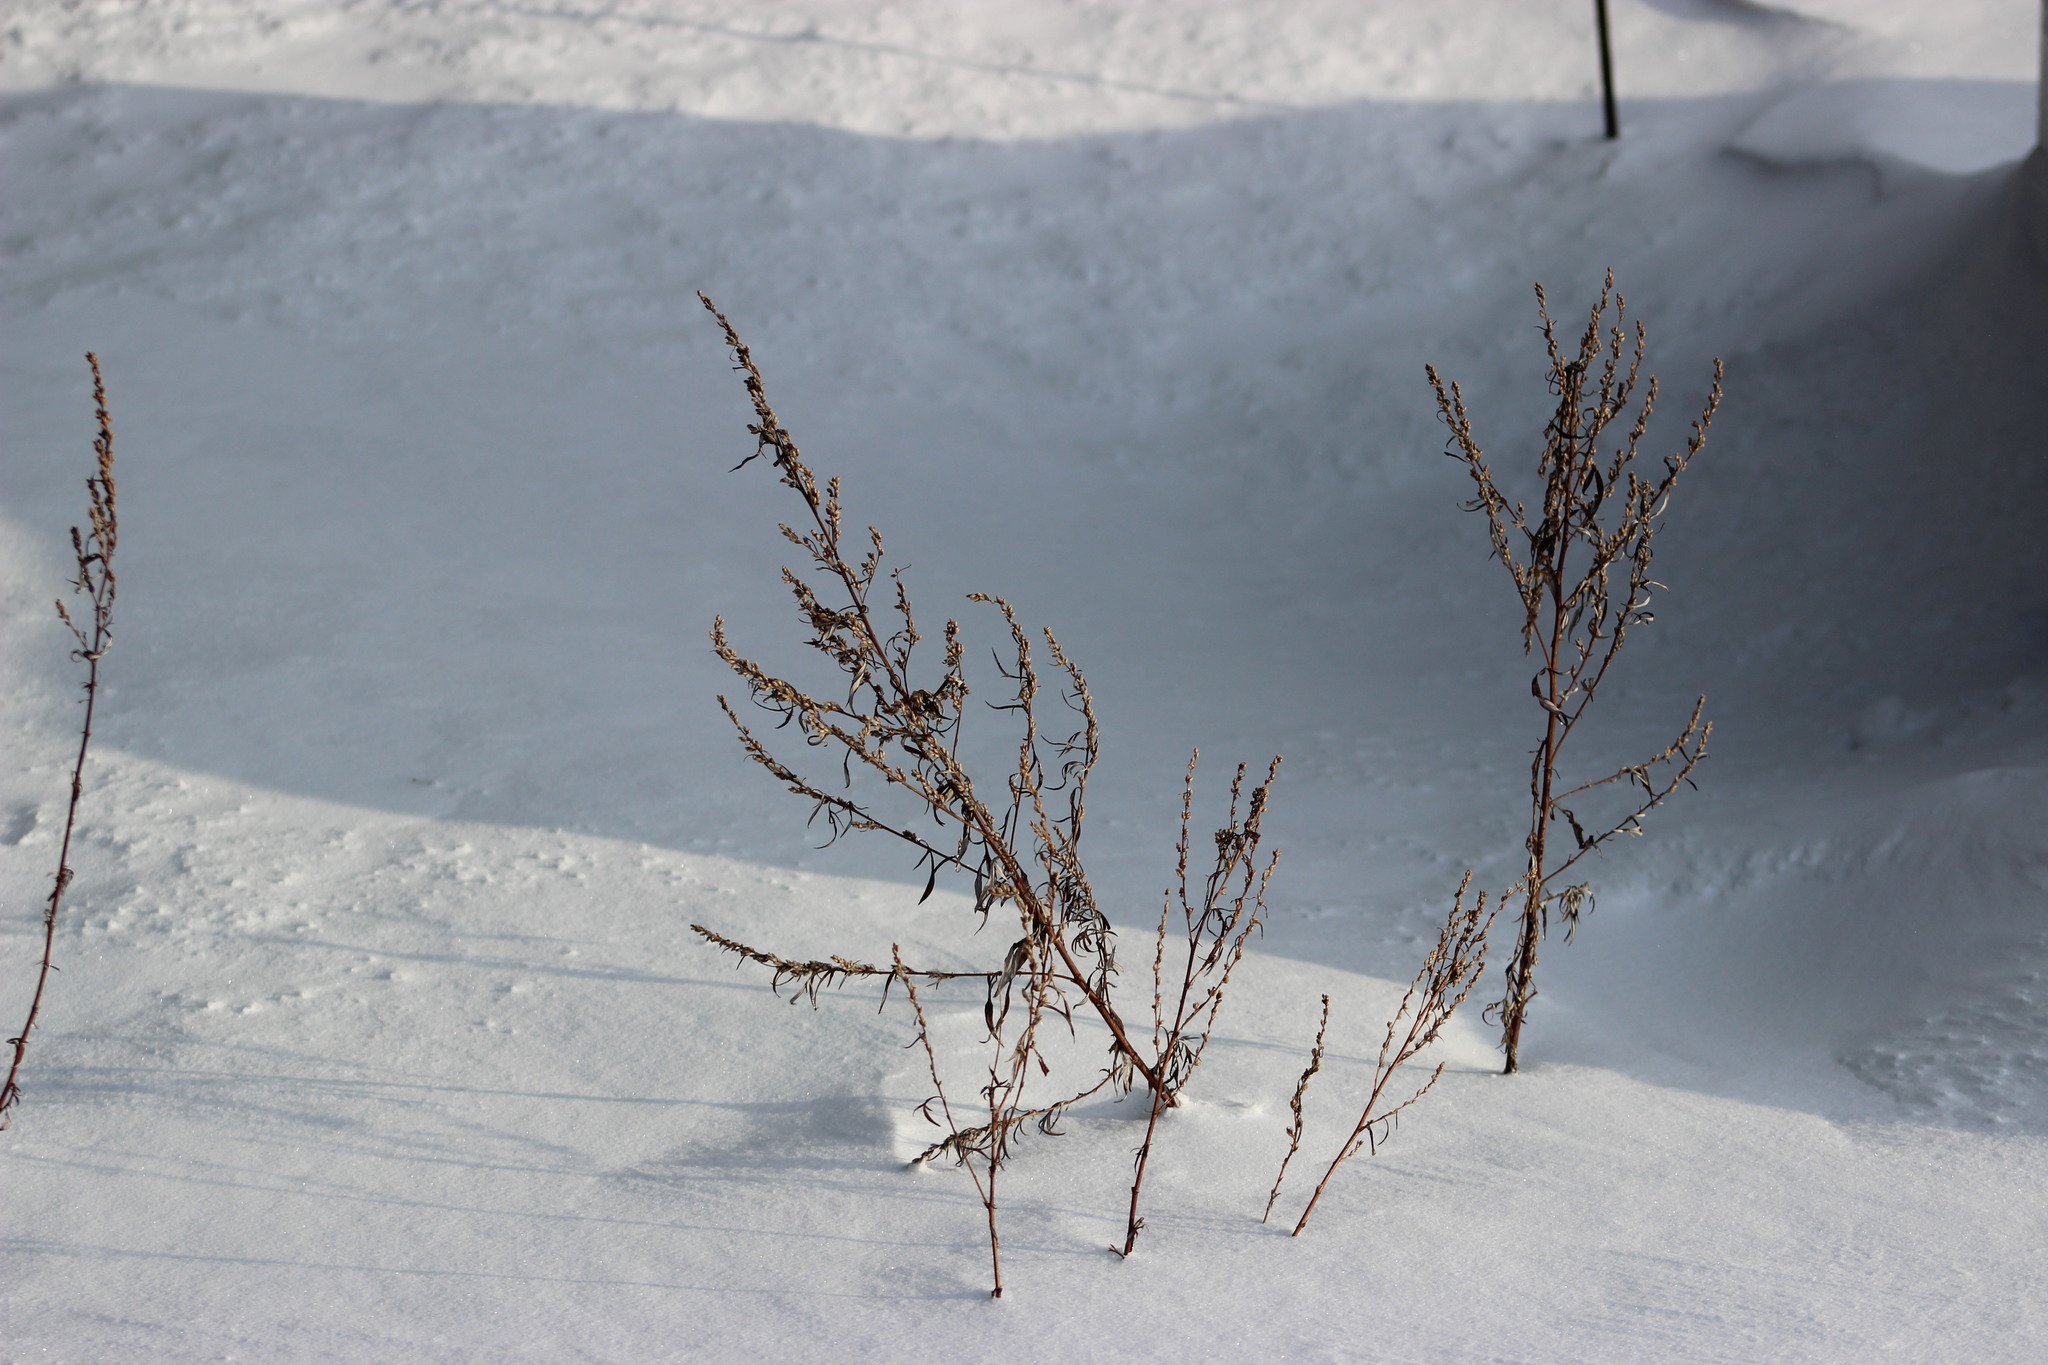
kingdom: Plantae
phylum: Tracheophyta
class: Magnoliopsida
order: Asterales
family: Asteraceae
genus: Artemisia
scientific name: Artemisia vulgaris
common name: Mugwort
